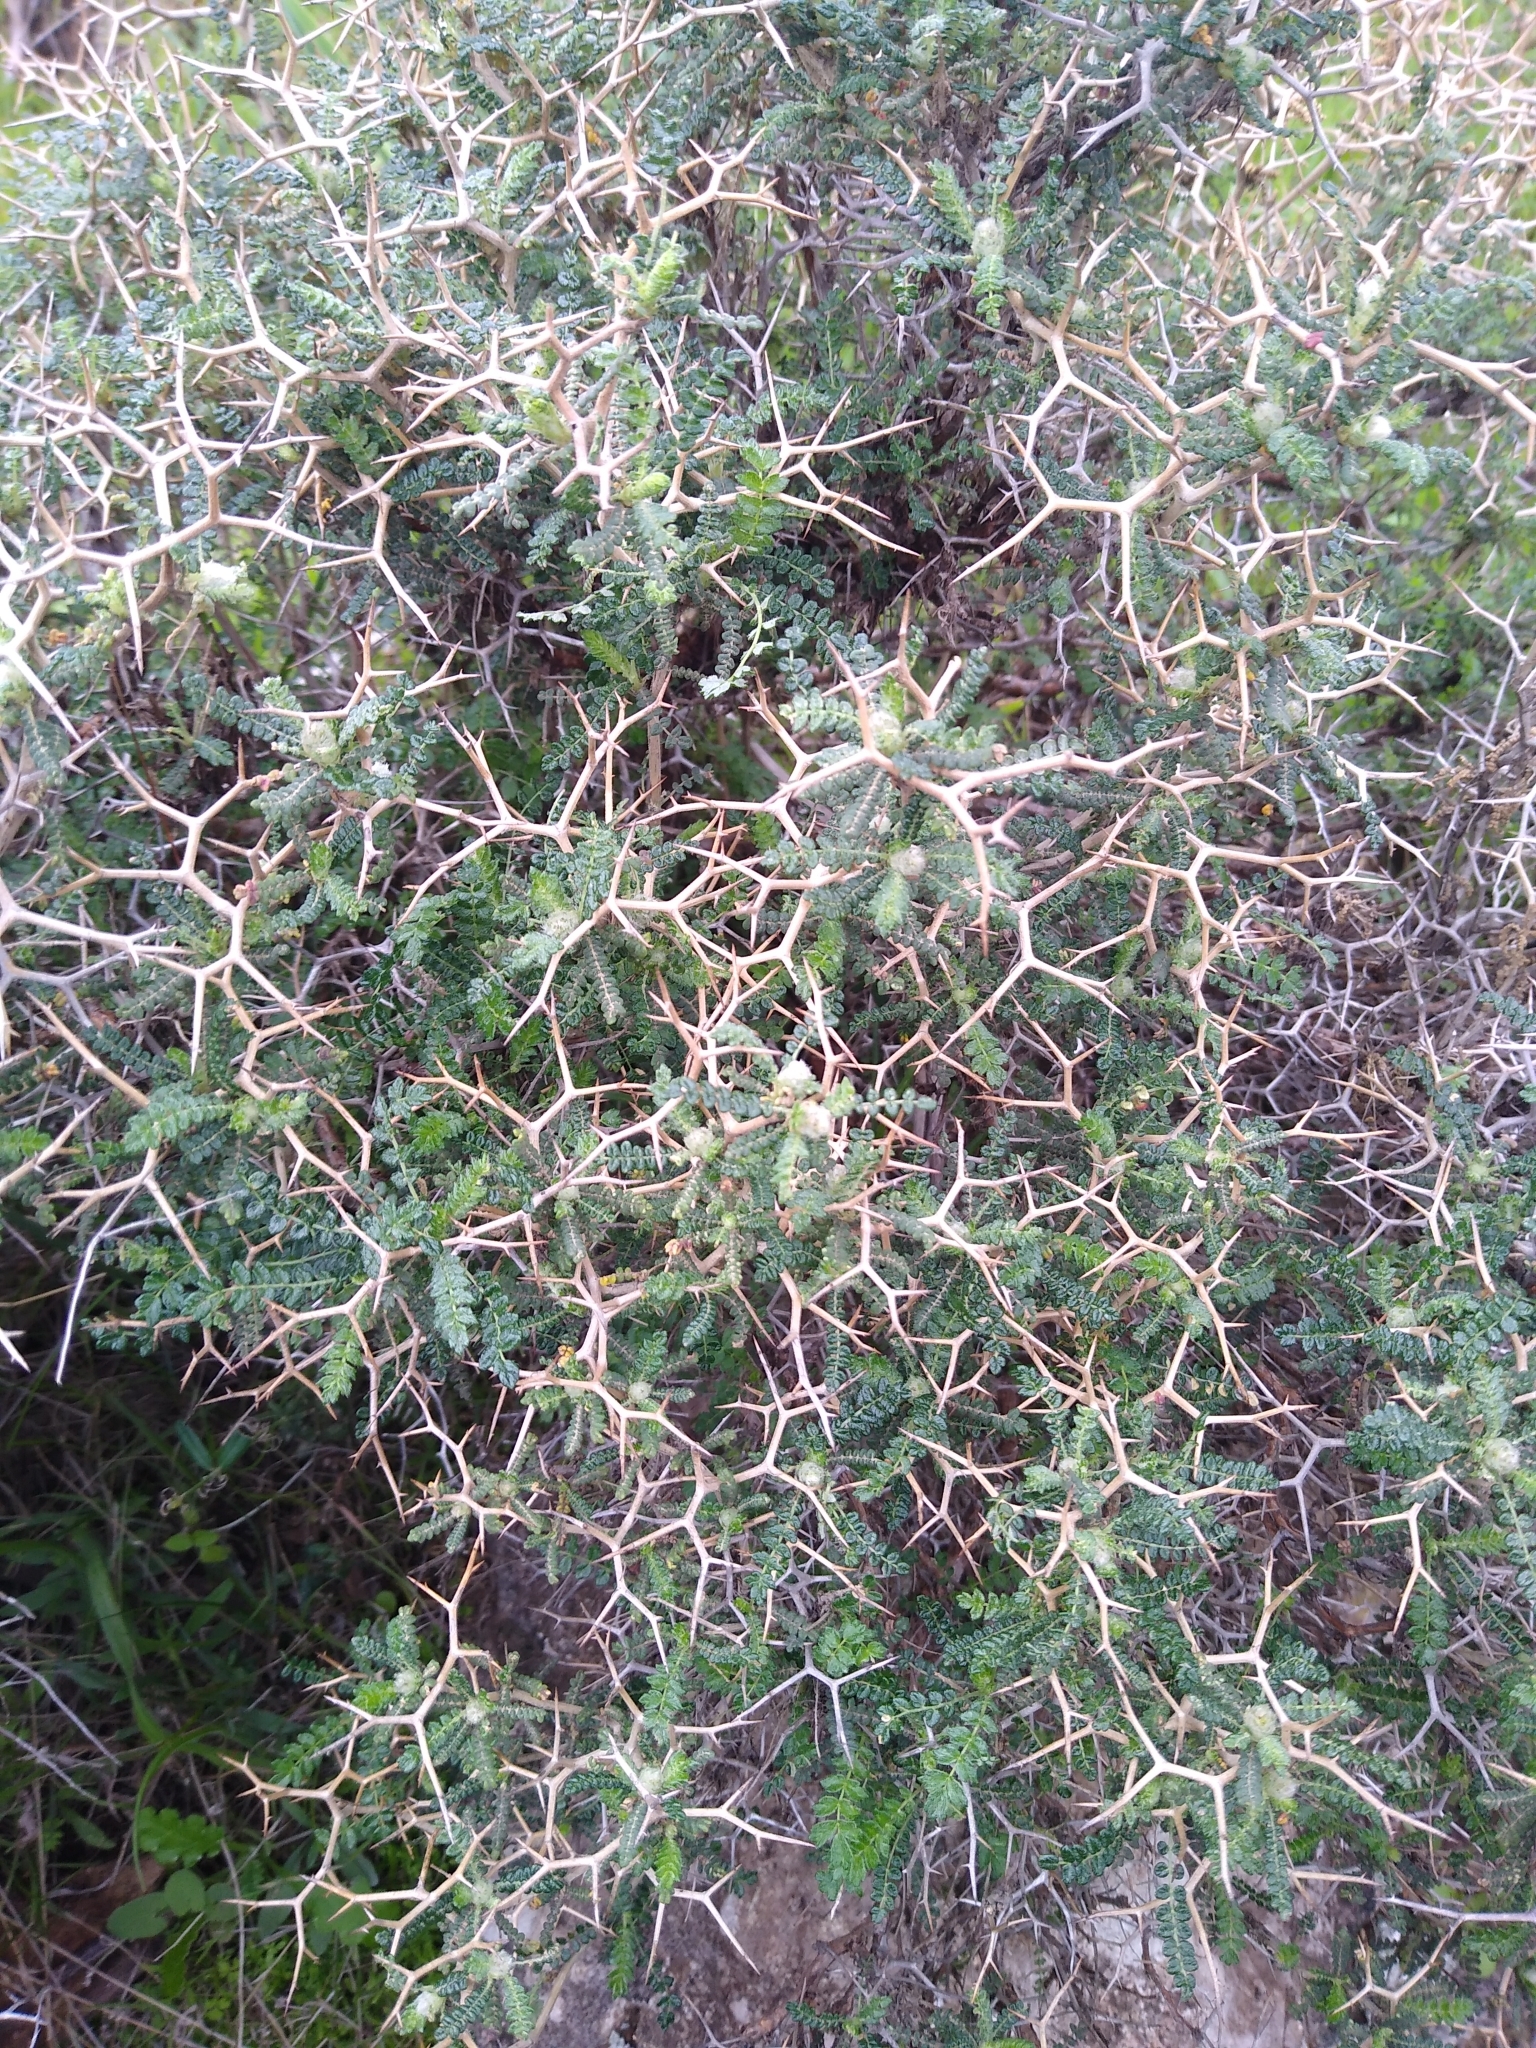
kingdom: Plantae
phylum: Tracheophyta
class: Magnoliopsida
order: Rosales
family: Rosaceae
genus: Sarcopoterium
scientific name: Sarcopoterium spinosum
